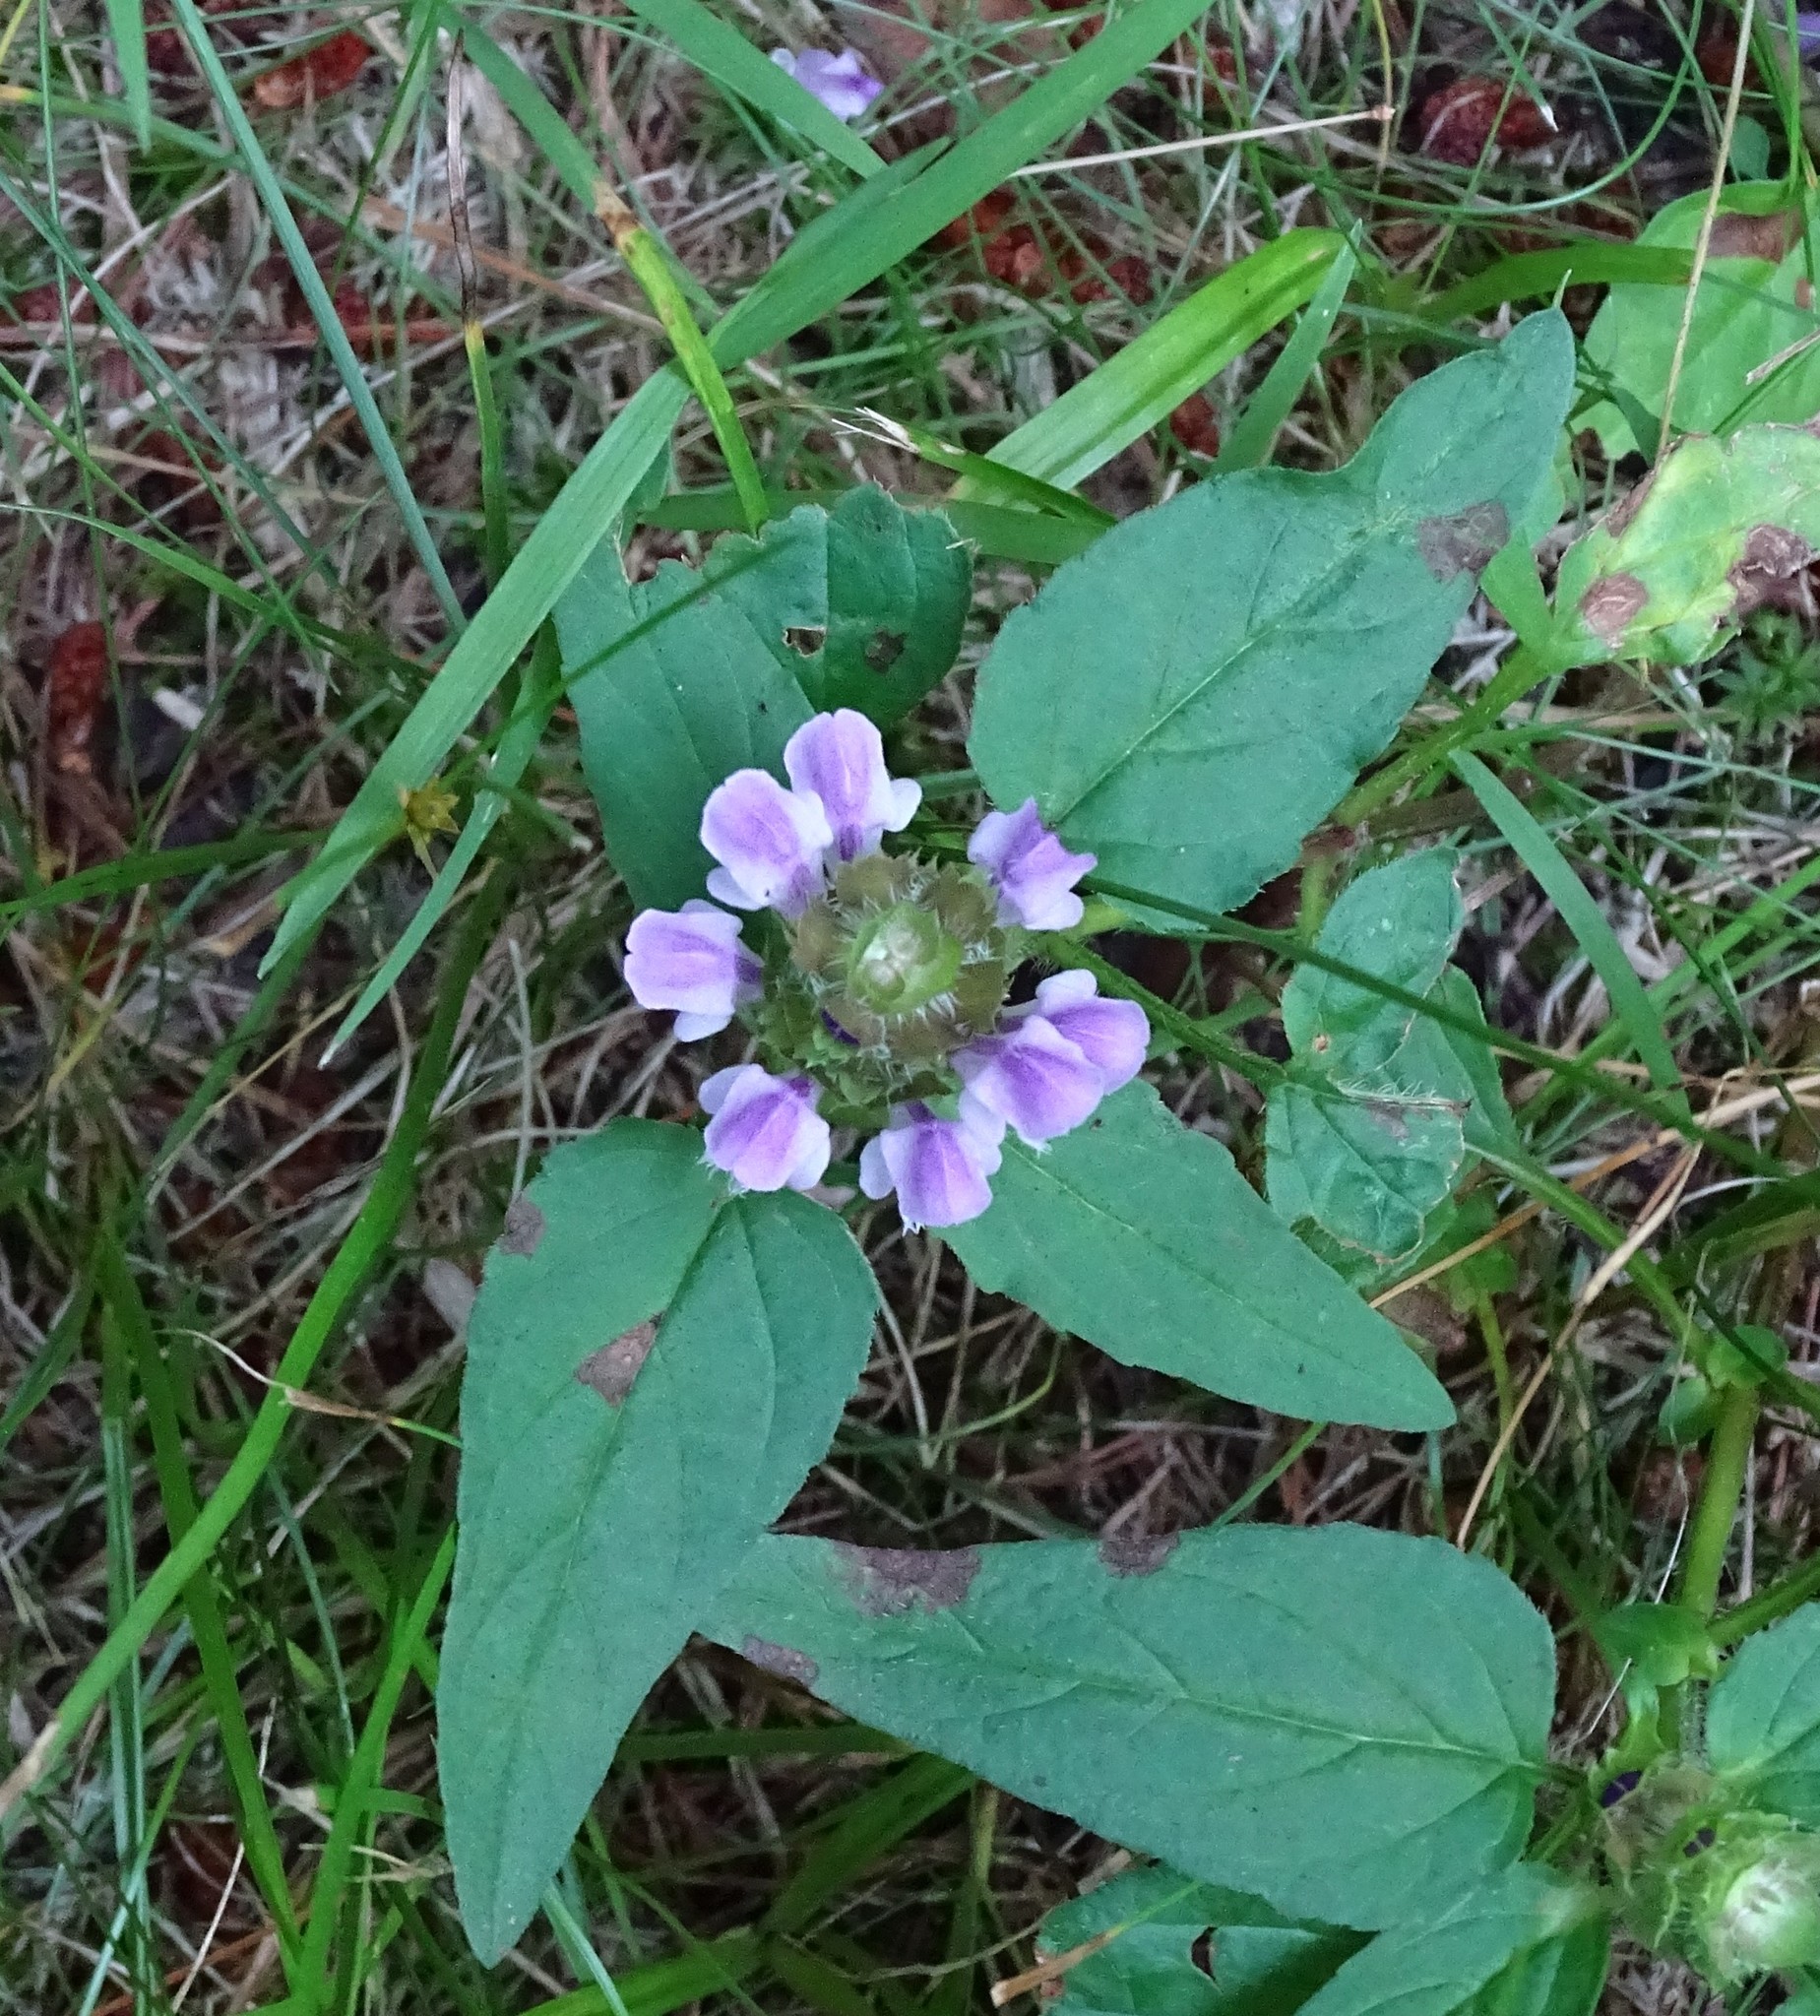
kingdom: Plantae
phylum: Tracheophyta
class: Magnoliopsida
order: Lamiales
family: Lamiaceae
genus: Prunella
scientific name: Prunella vulgaris
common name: Heal-all
